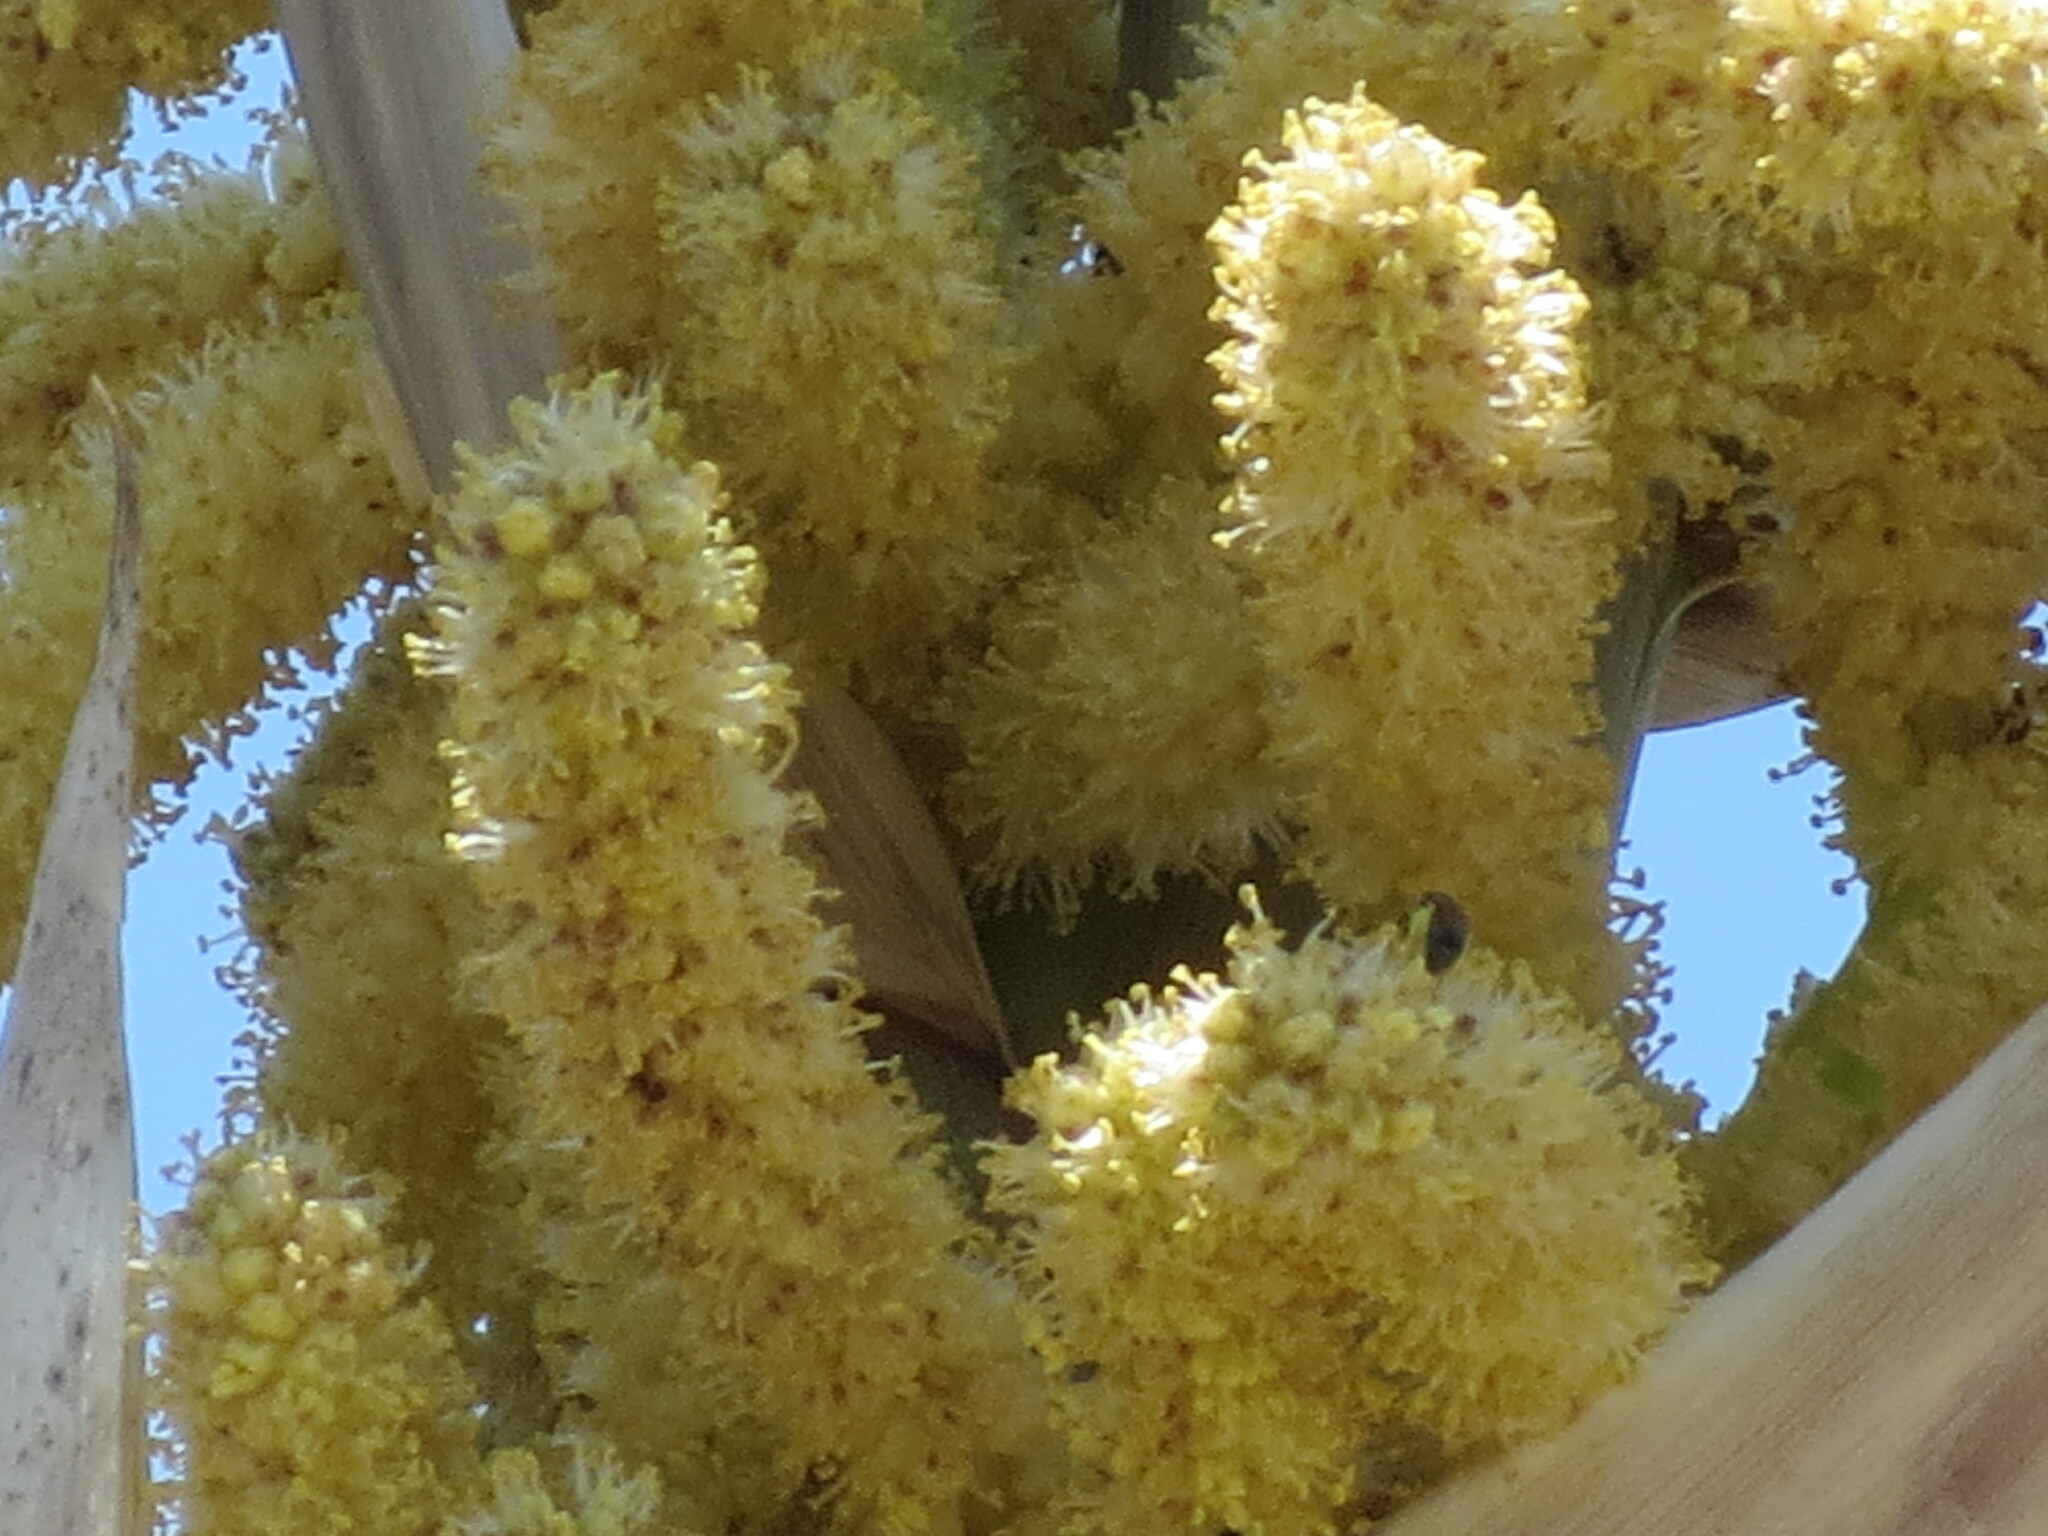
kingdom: Plantae
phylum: Tracheophyta
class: Liliopsida
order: Asparagales
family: Asparagaceae
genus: Dasylirion
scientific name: Dasylirion texanum
